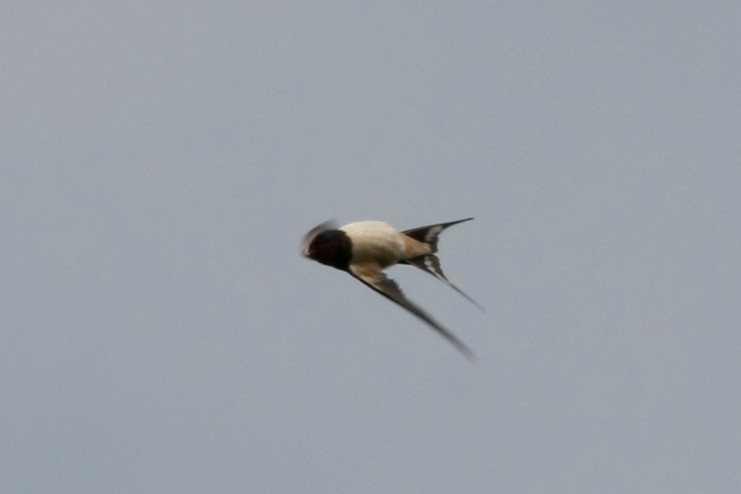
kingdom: Animalia
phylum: Chordata
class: Aves
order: Passeriformes
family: Hirundinidae
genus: Hirundo
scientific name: Hirundo rustica
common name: Barn swallow
